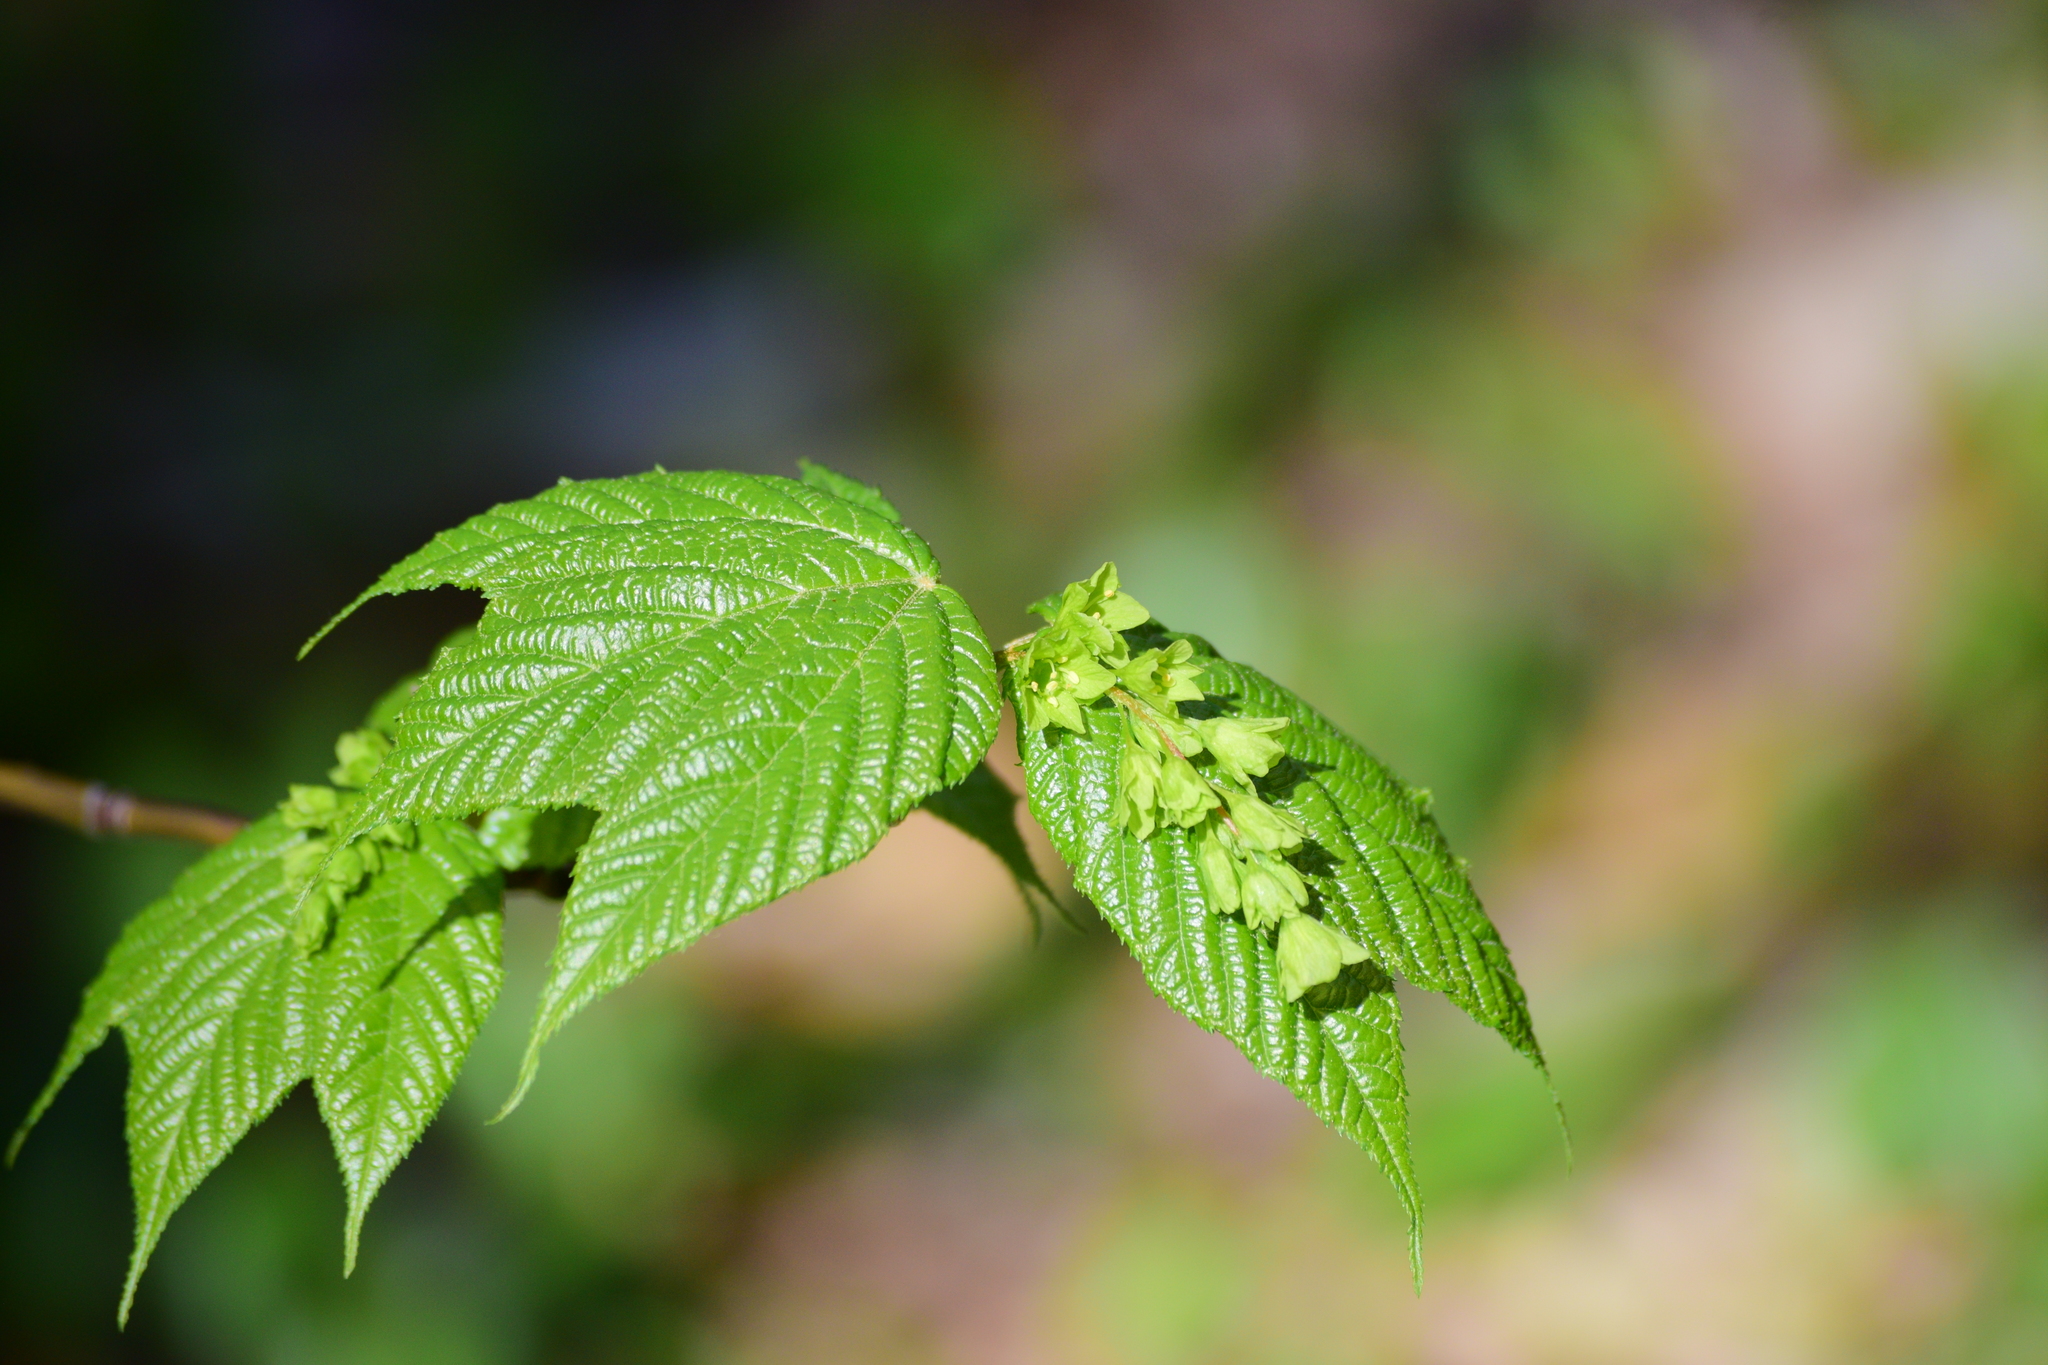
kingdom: Plantae
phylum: Tracheophyta
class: Magnoliopsida
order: Sapindales
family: Sapindaceae
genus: Acer
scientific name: Acer pensylvanicum
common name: Moosewood
